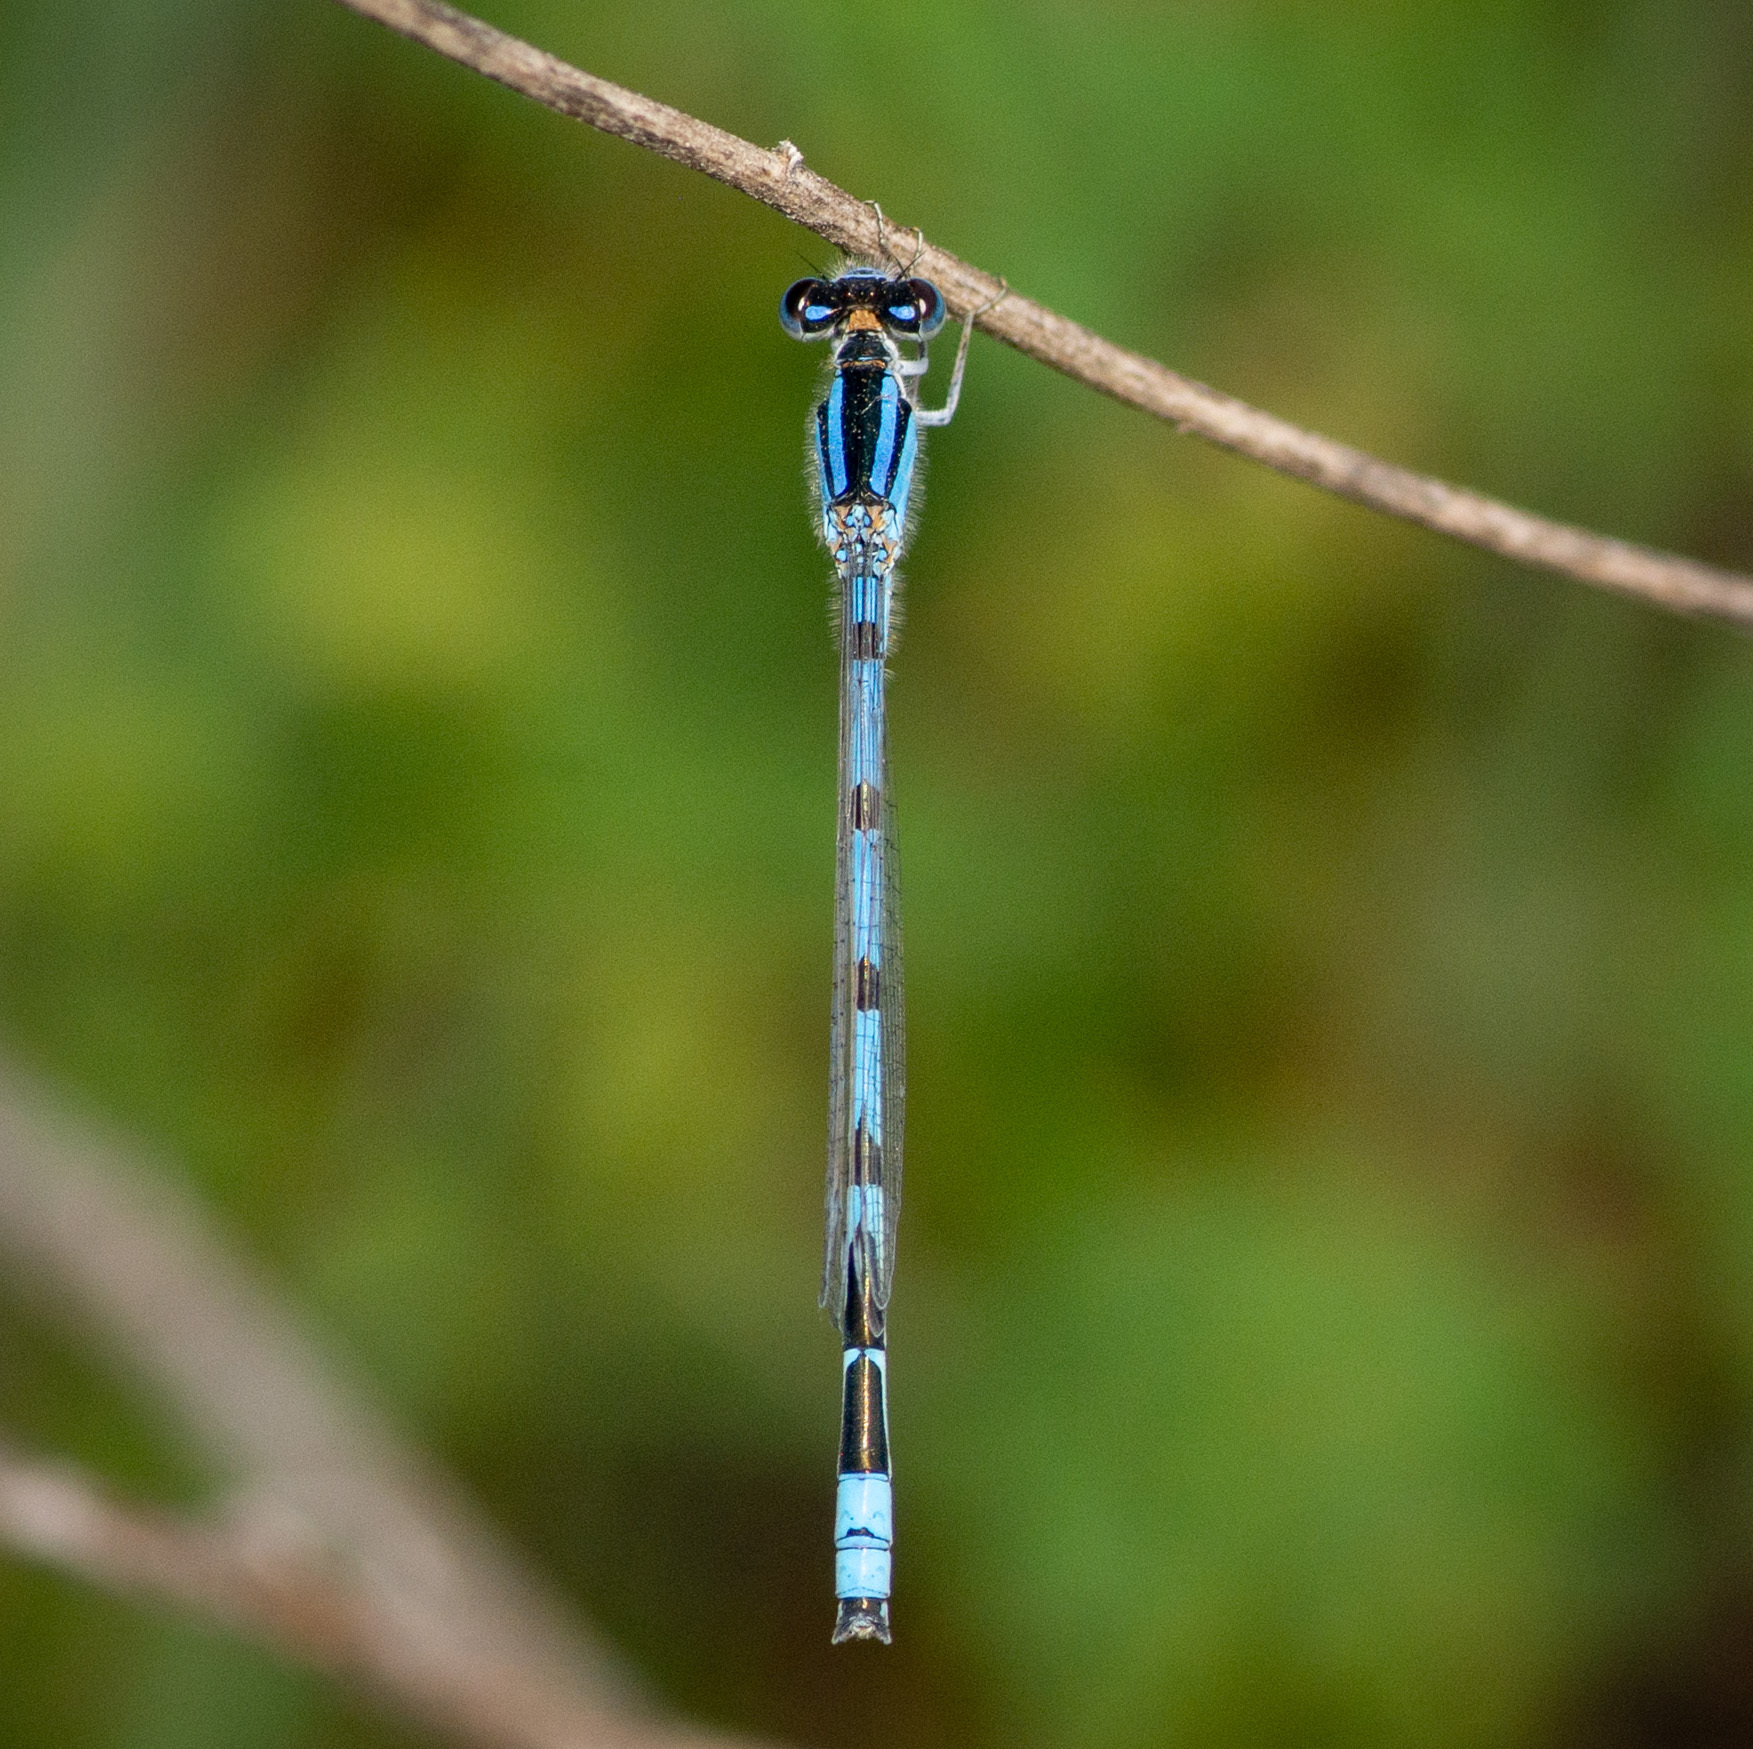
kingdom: Animalia
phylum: Arthropoda
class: Insecta
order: Odonata
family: Coenagrionidae
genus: Enallagma
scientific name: Enallagma civile
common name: Damselfly
